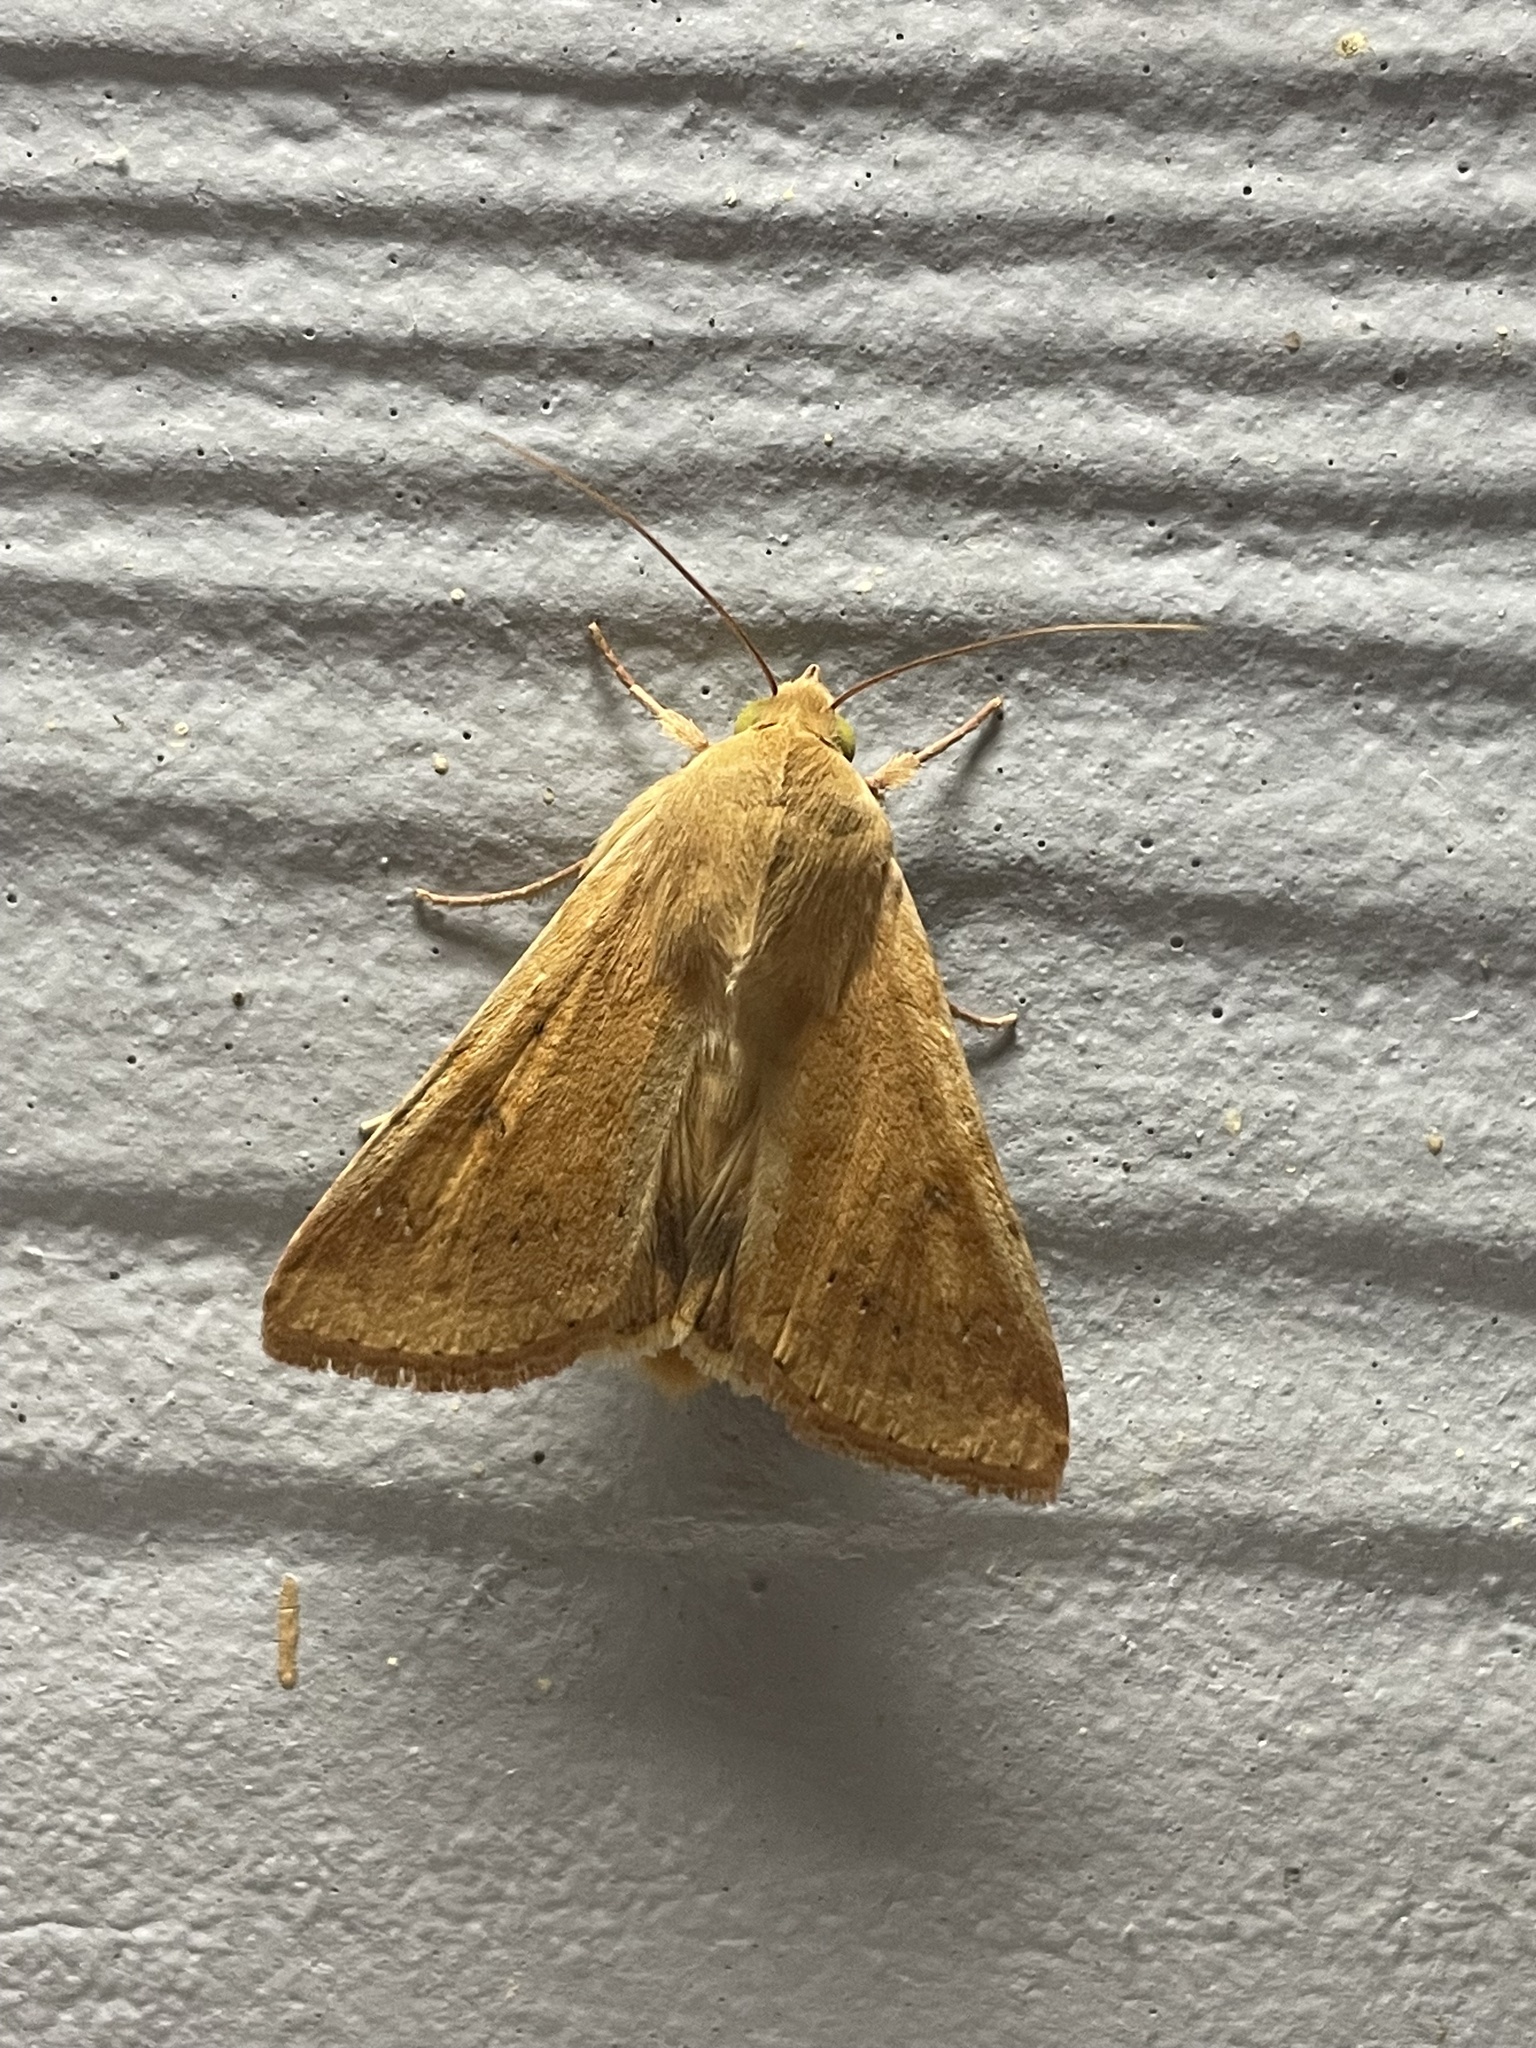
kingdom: Animalia
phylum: Arthropoda
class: Insecta
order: Lepidoptera
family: Noctuidae
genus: Helicoverpa
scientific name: Helicoverpa zea
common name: Bollworm
